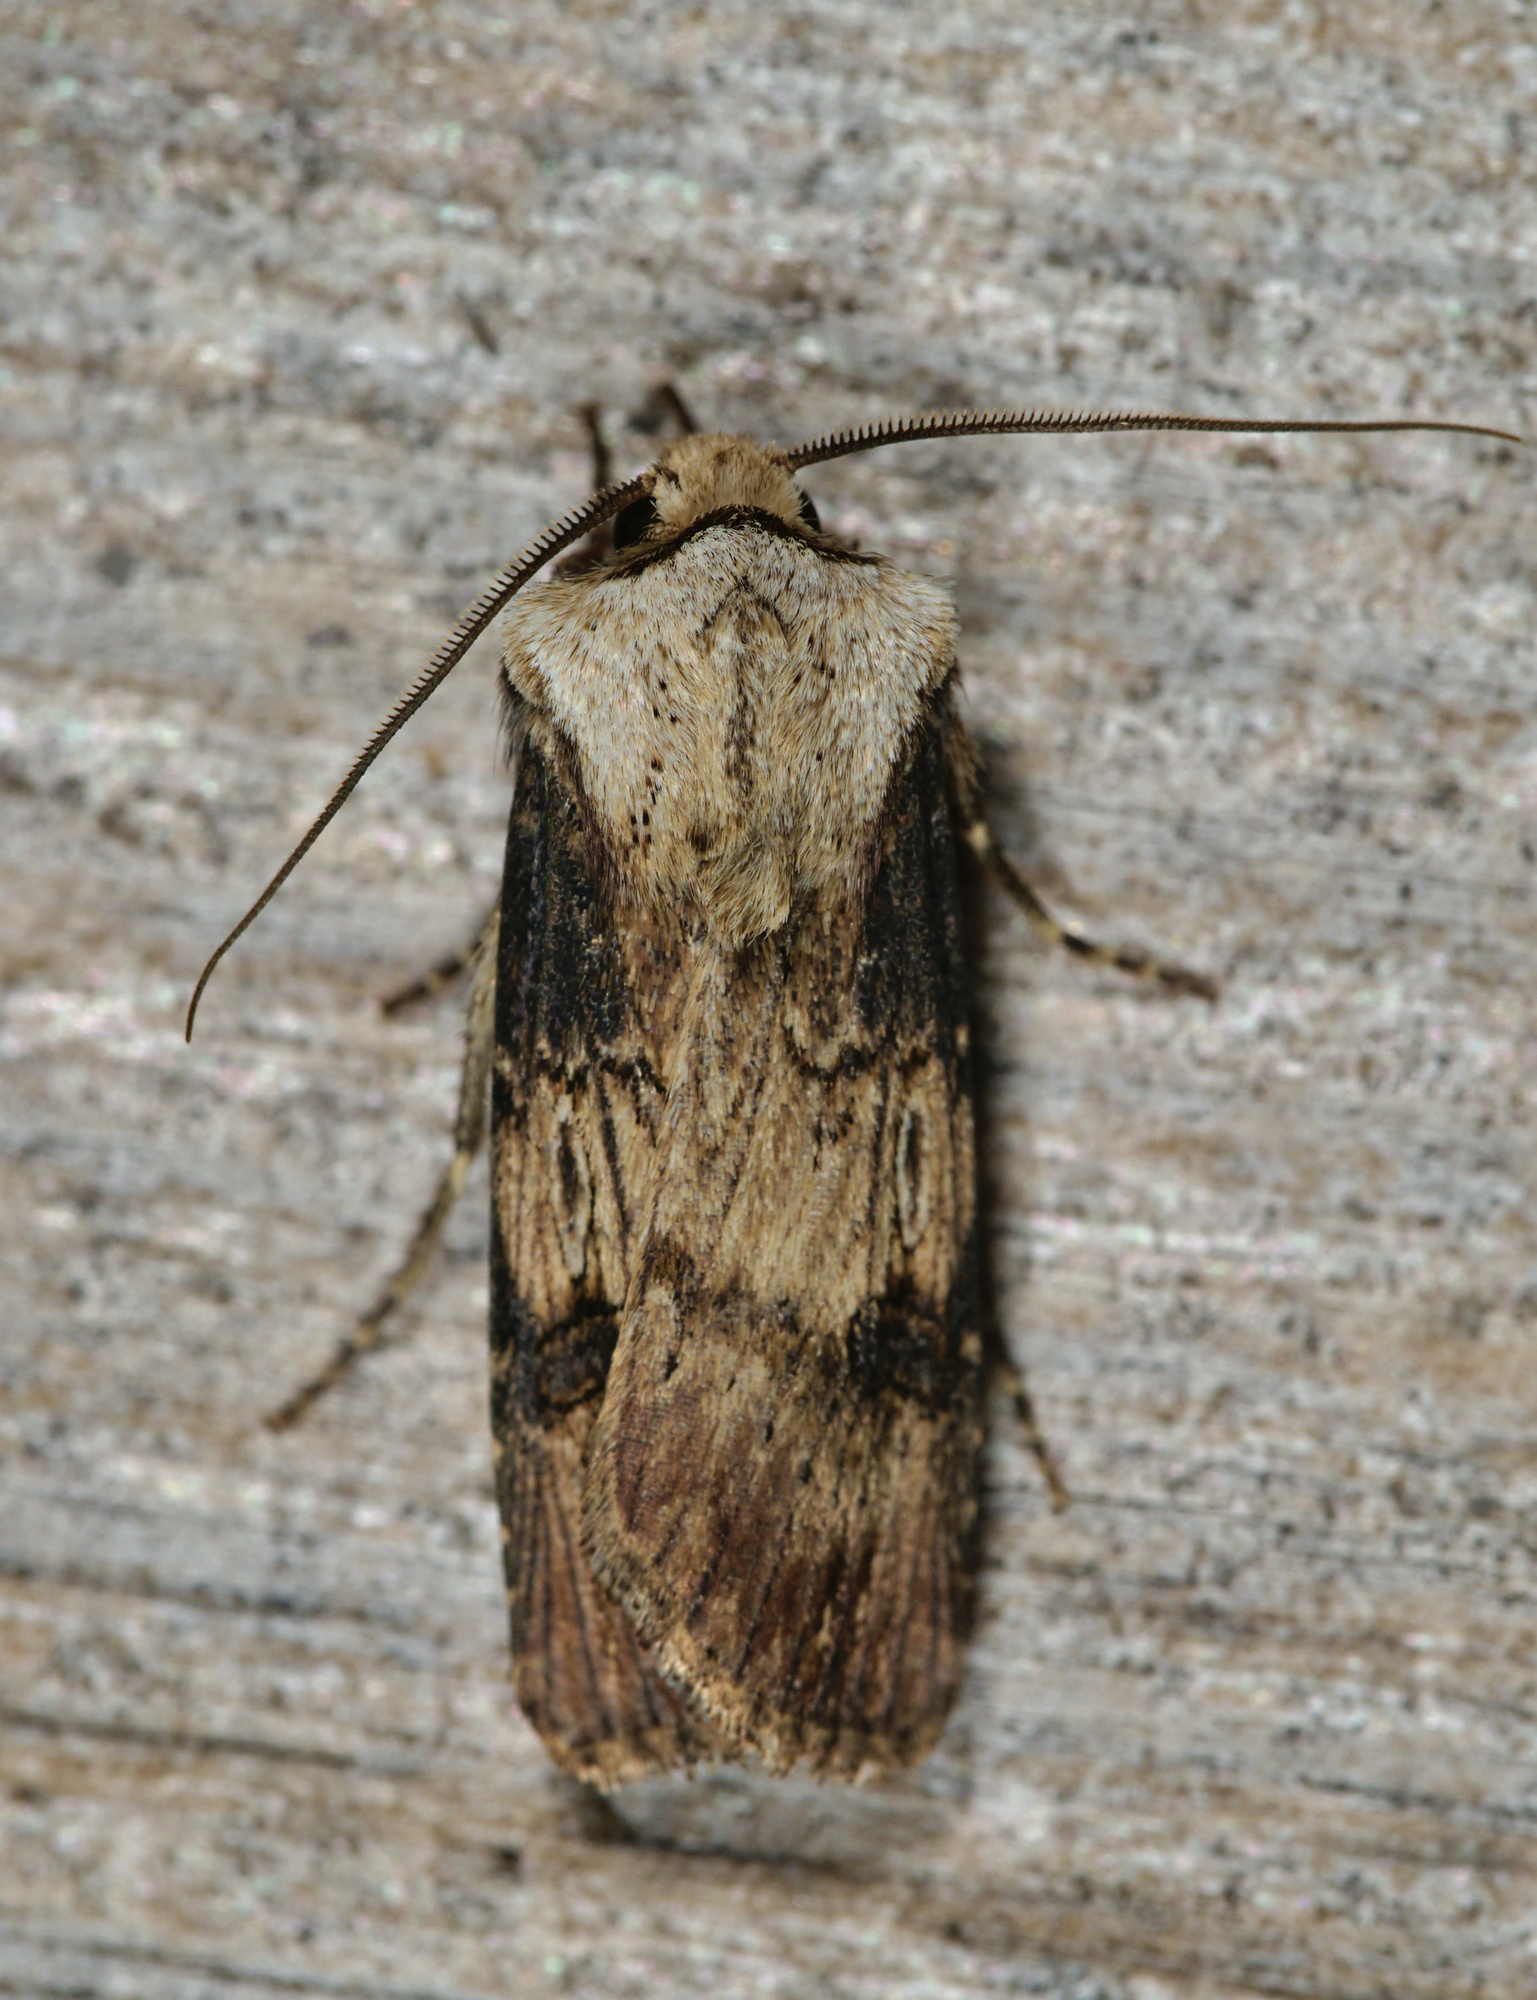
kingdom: Animalia
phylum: Arthropoda
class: Insecta
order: Lepidoptera
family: Noctuidae
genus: Agrotis
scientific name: Agrotis puta
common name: Shuttle-shaped dart
